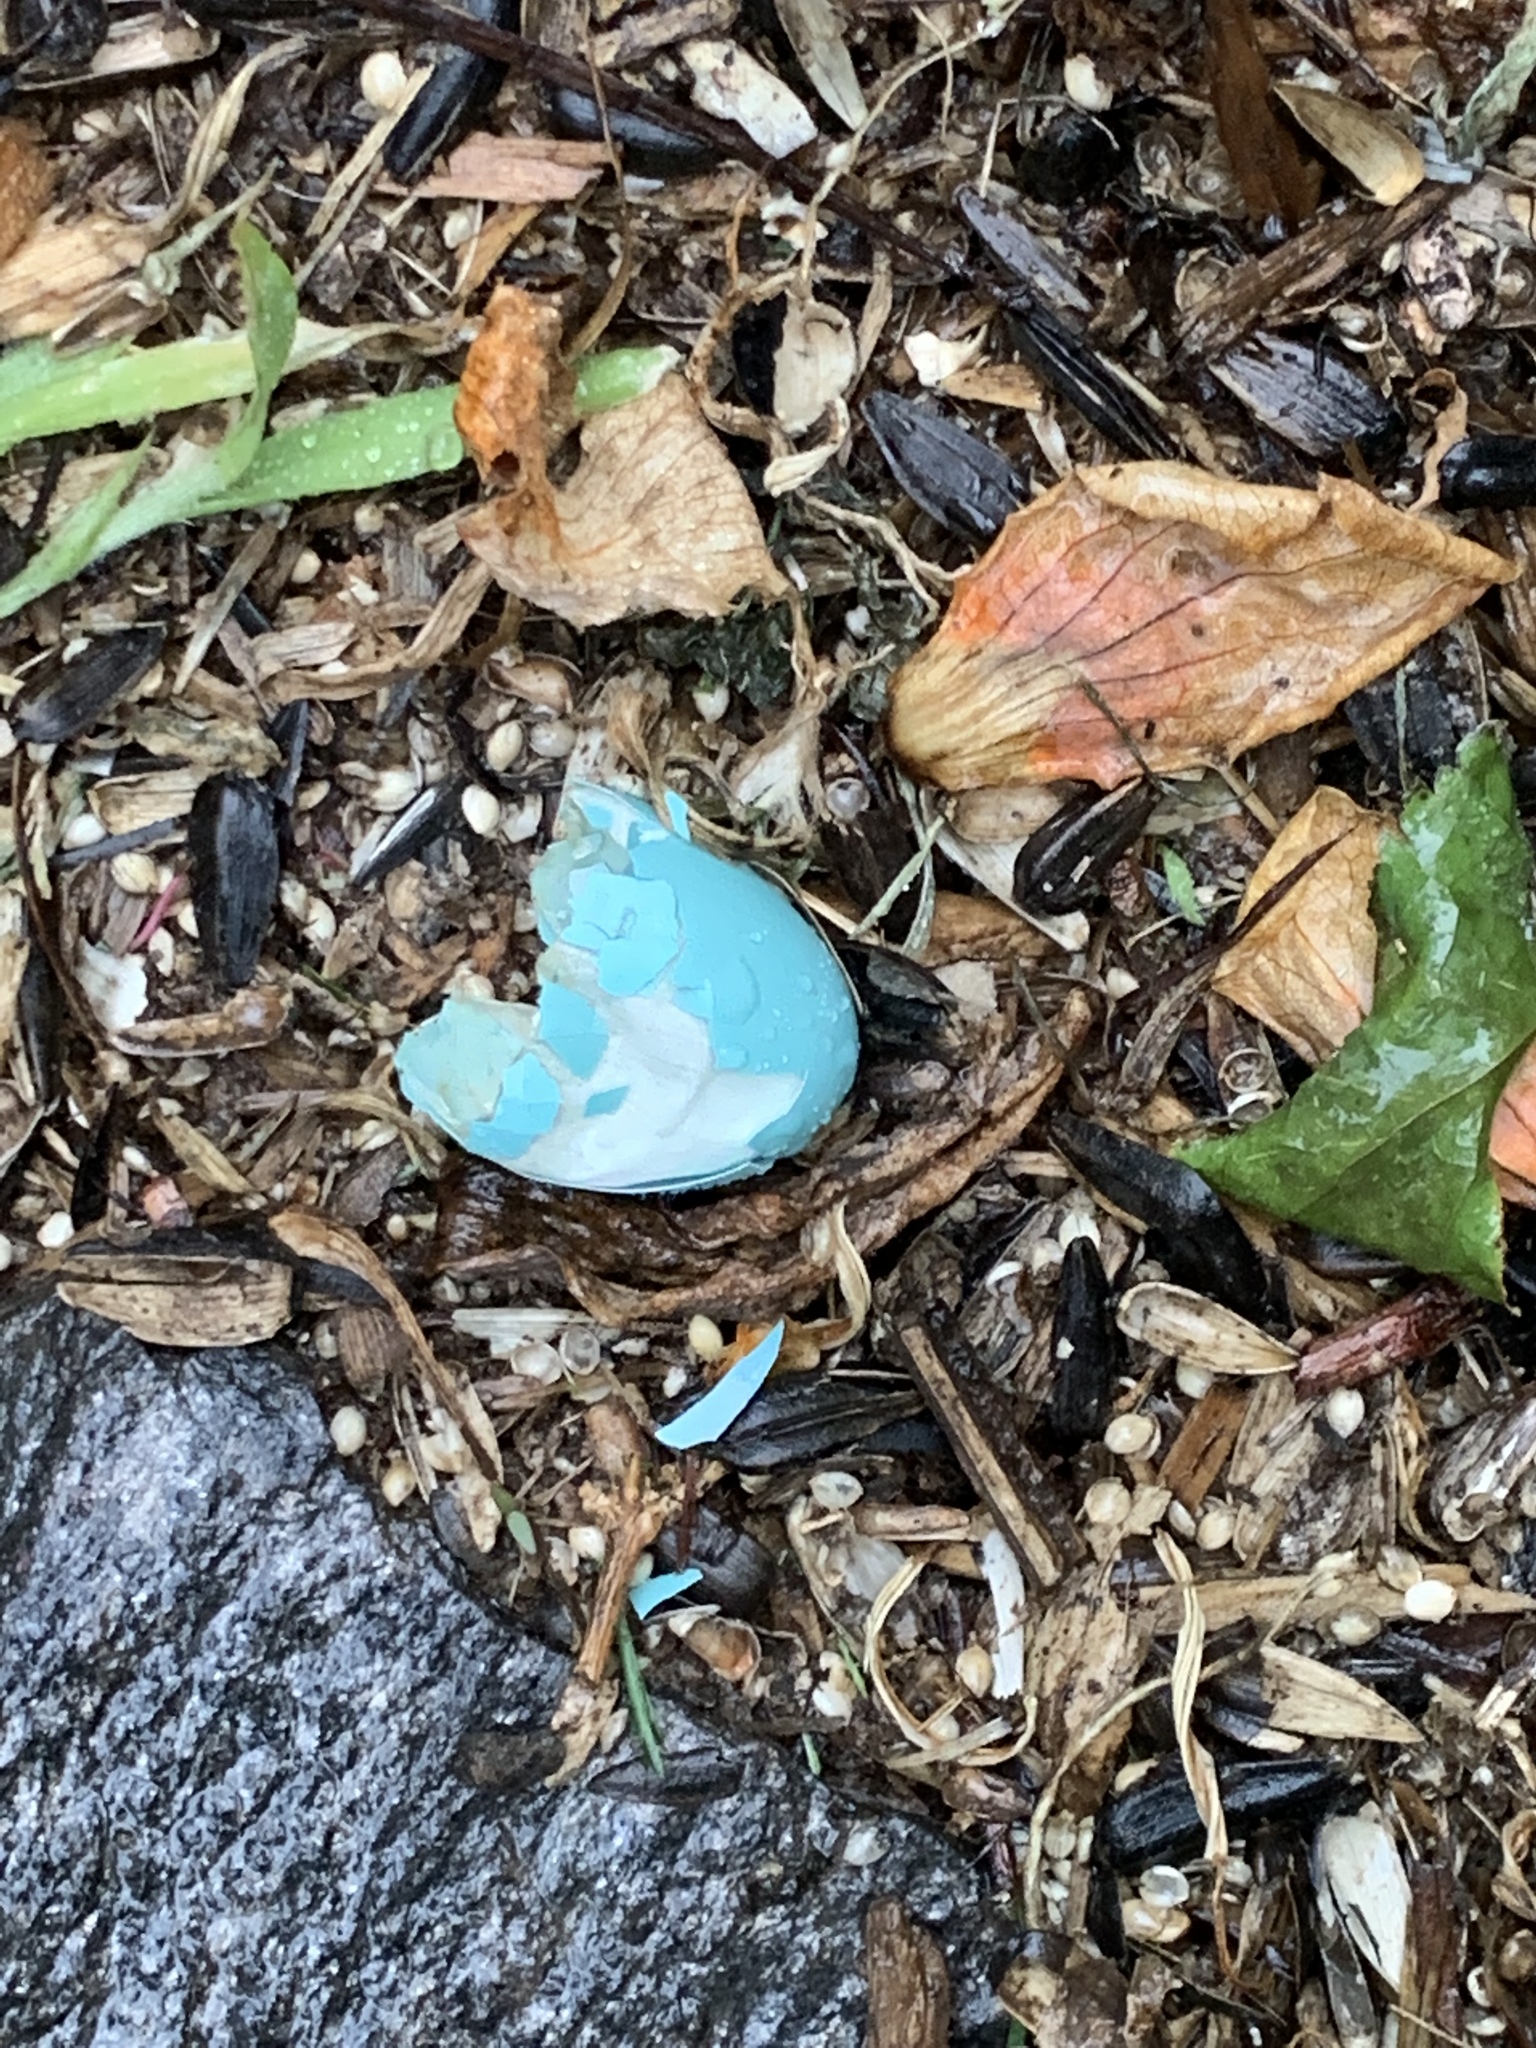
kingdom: Animalia
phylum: Chordata
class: Aves
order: Passeriformes
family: Turdidae
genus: Turdus
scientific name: Turdus migratorius
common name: American robin
